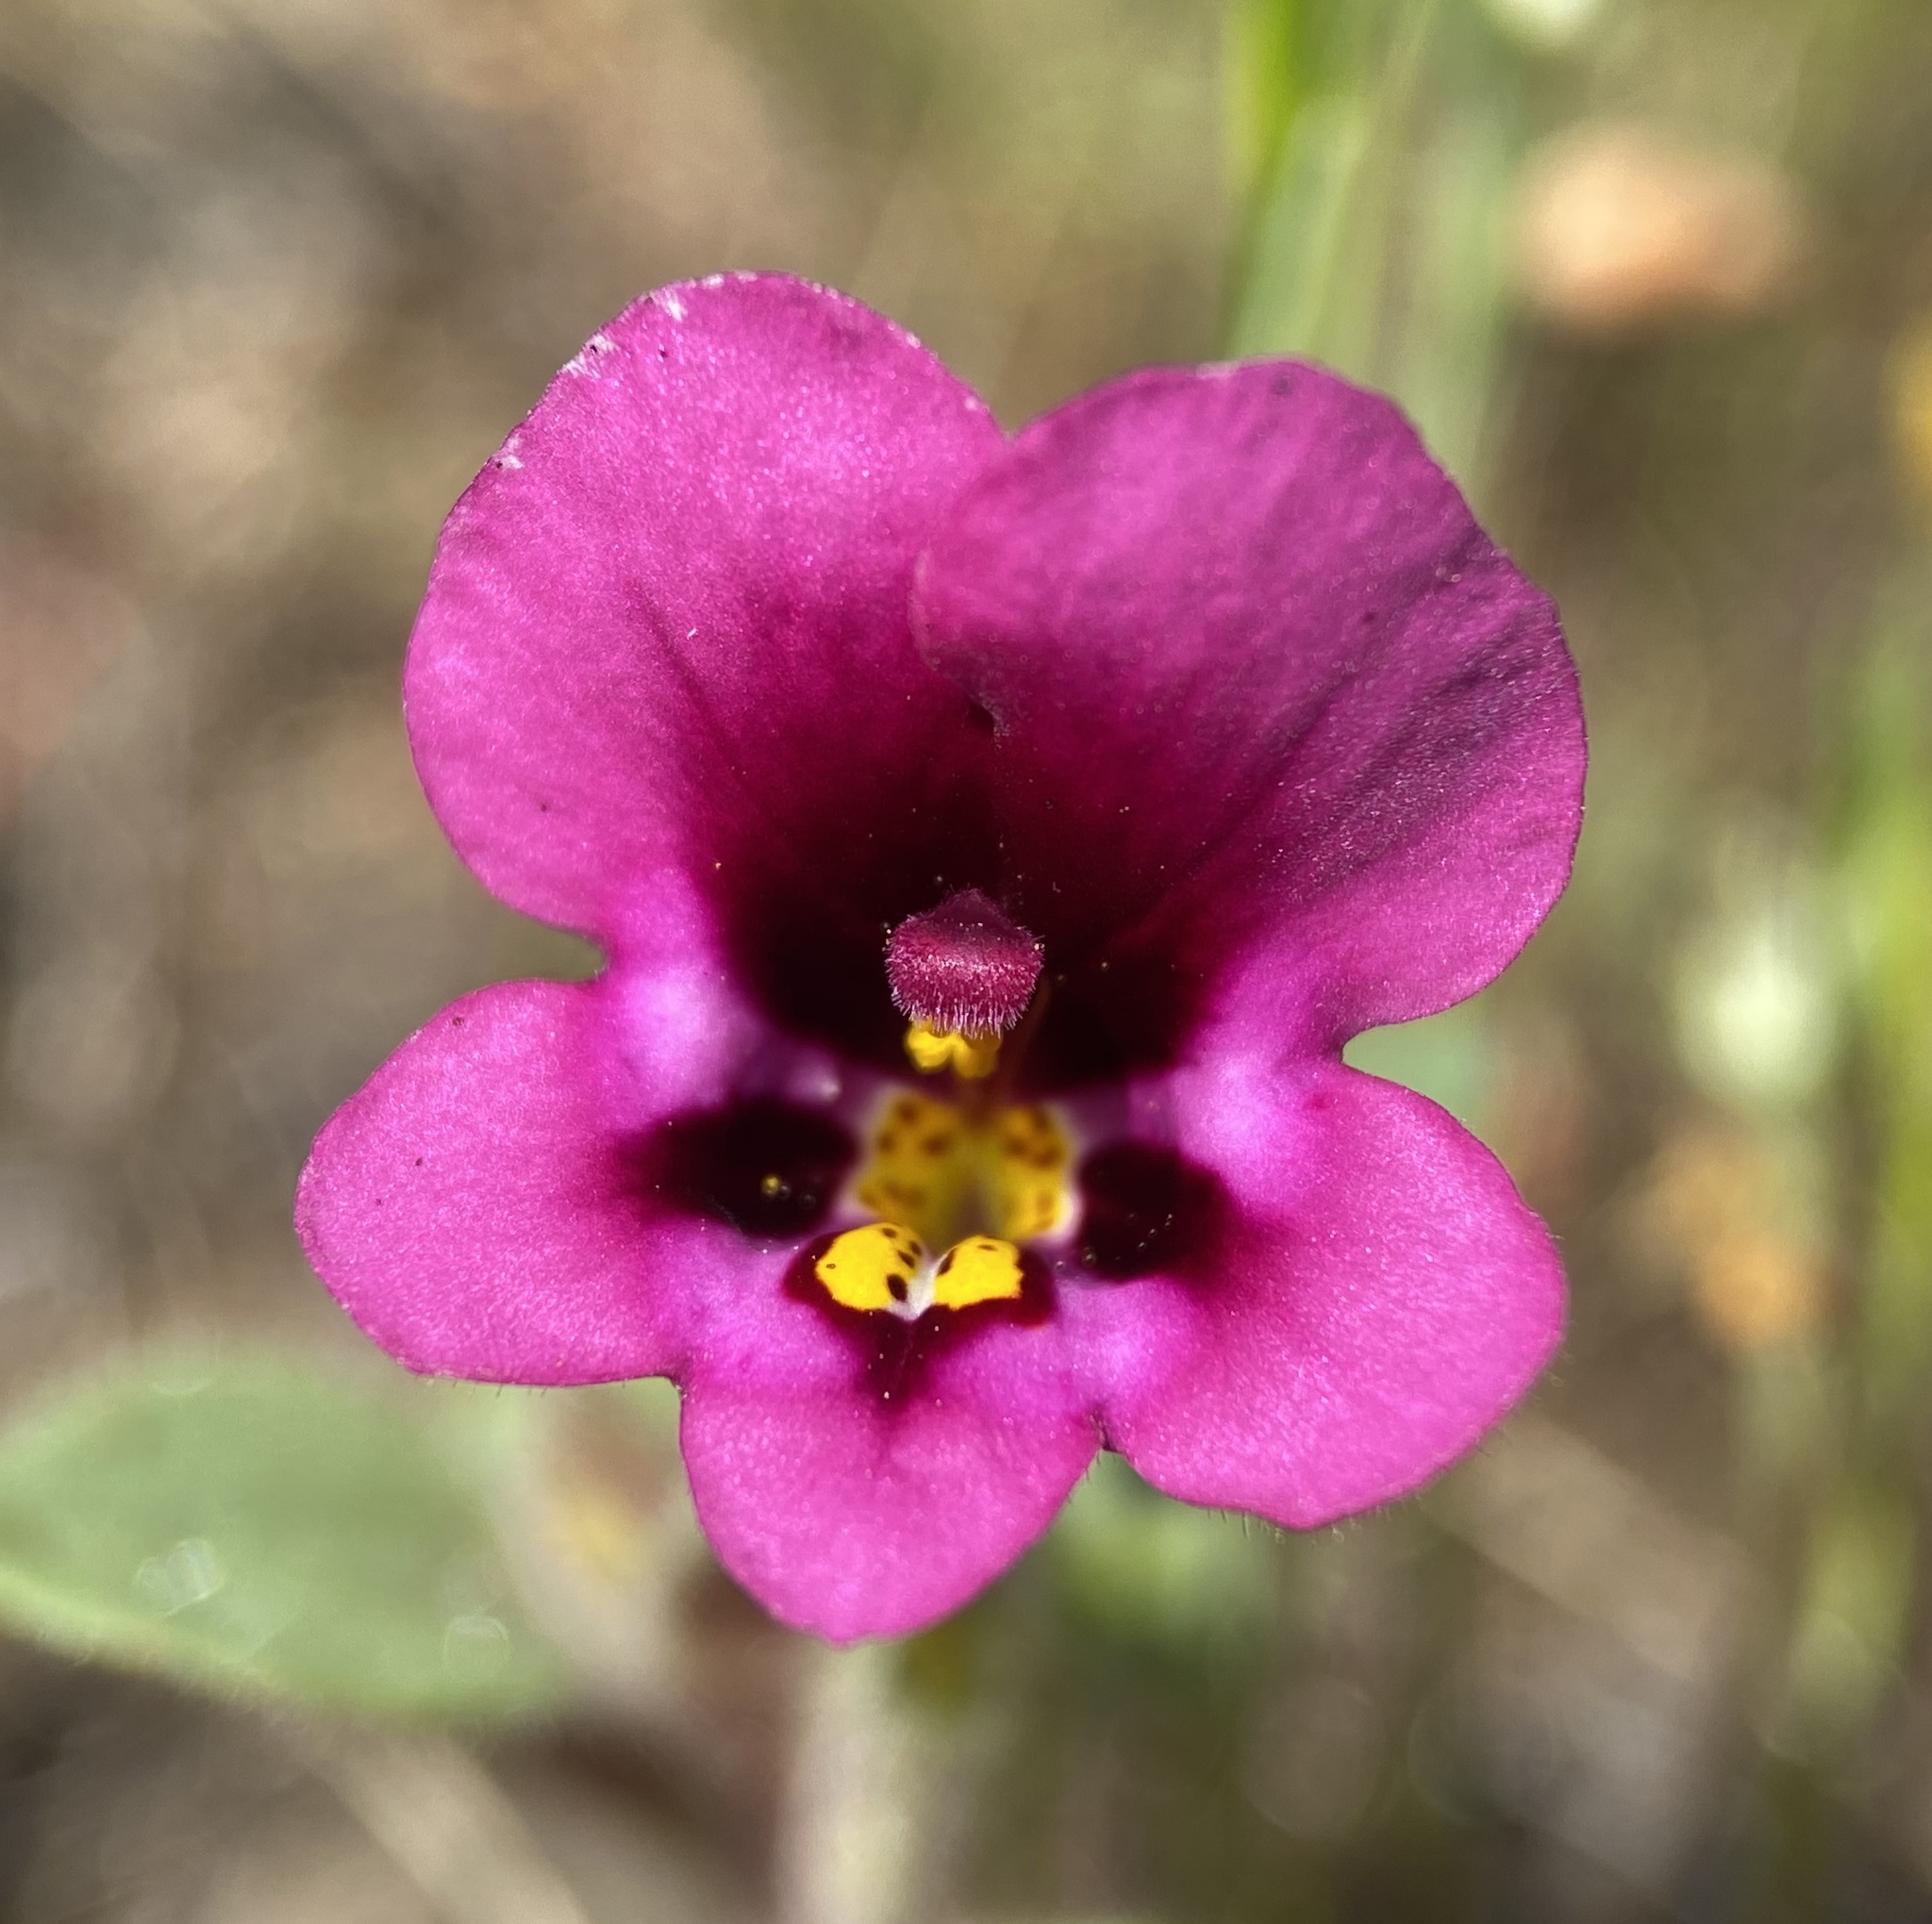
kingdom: Plantae
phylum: Tracheophyta
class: Magnoliopsida
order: Lamiales
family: Phrymaceae
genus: Diplacus
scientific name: Diplacus kelloggii
